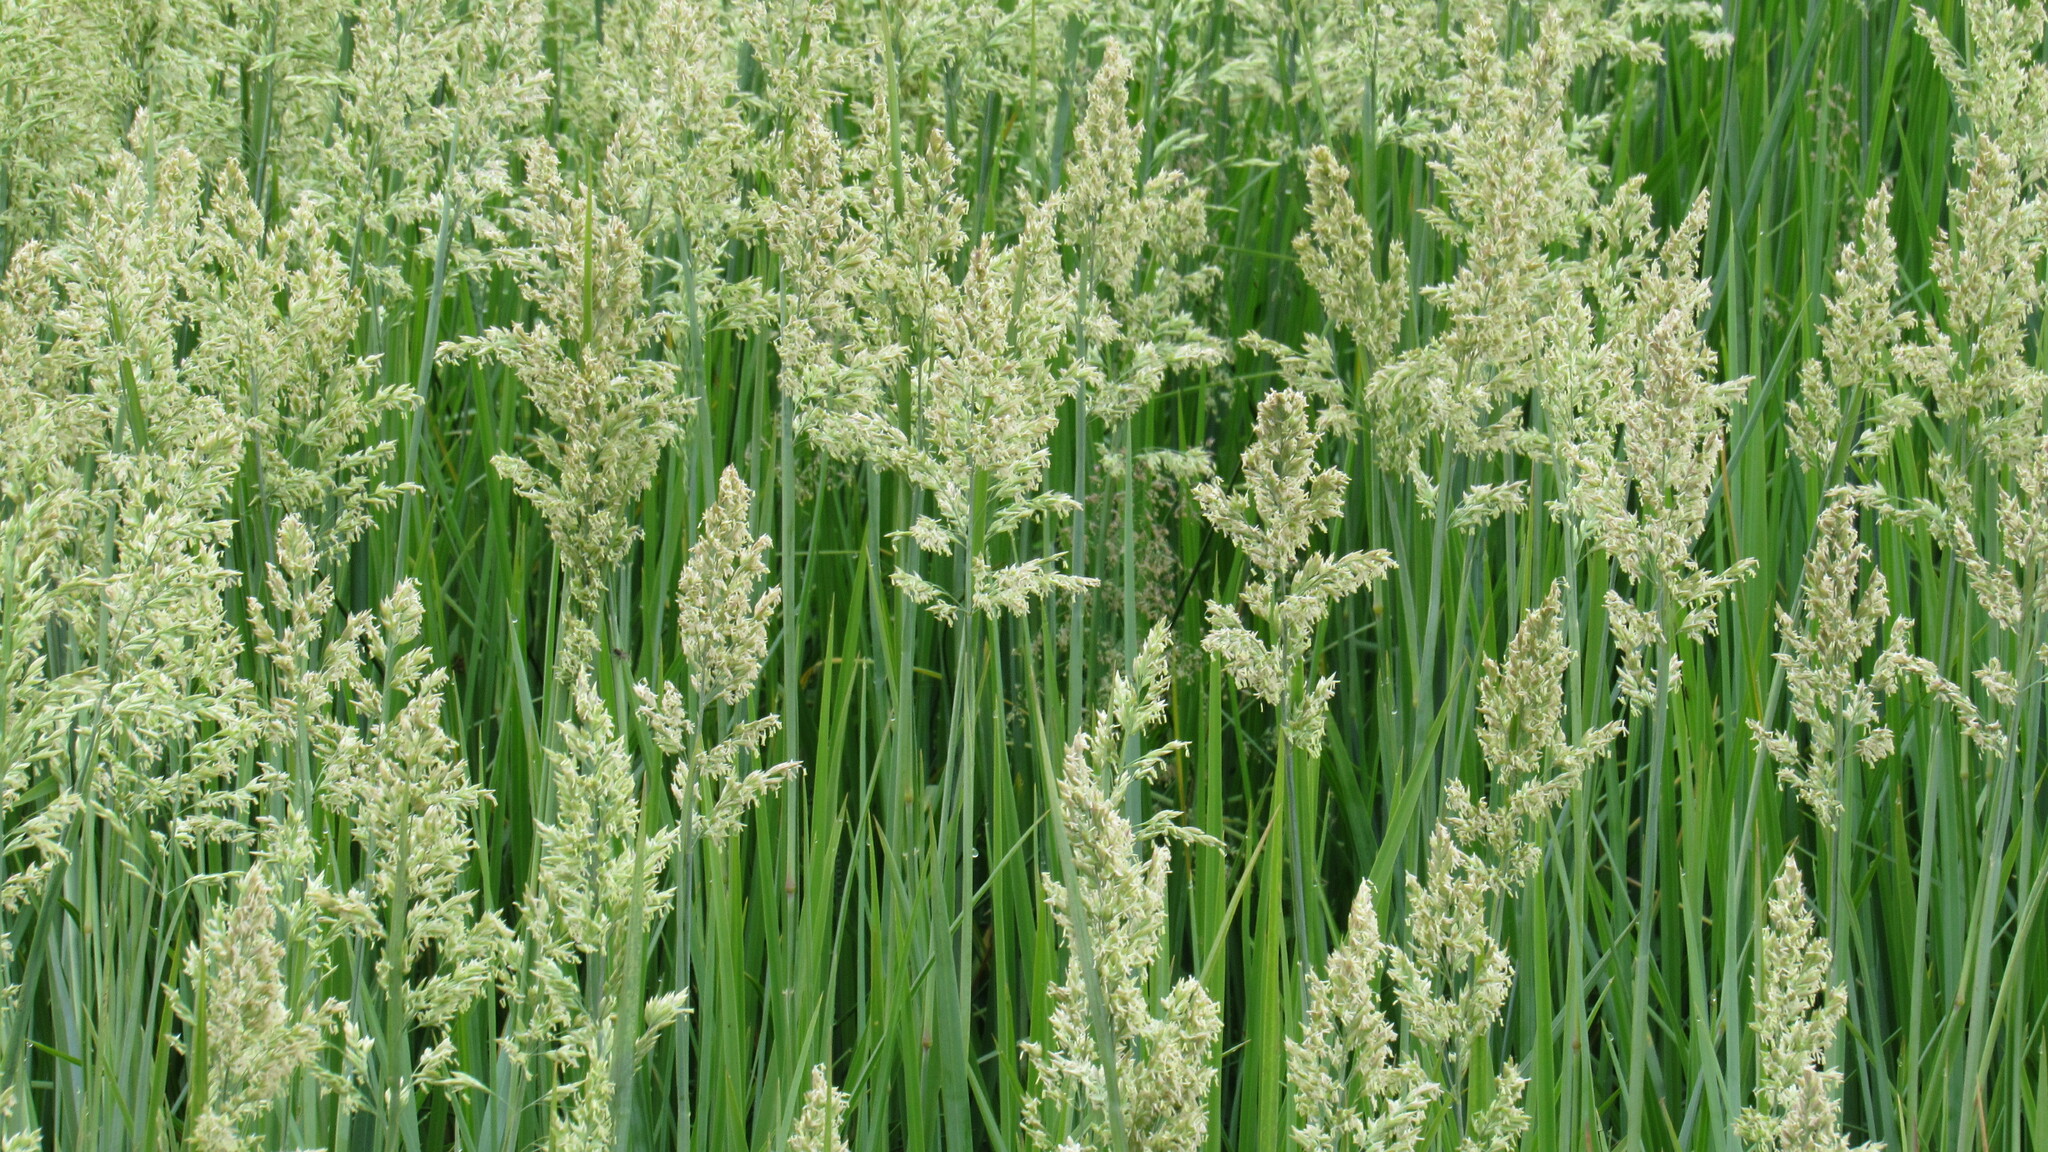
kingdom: Plantae
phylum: Tracheophyta
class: Liliopsida
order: Poales
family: Poaceae
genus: Arctopoa
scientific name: Arctopoa eminens
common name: Eminent bluegrass
